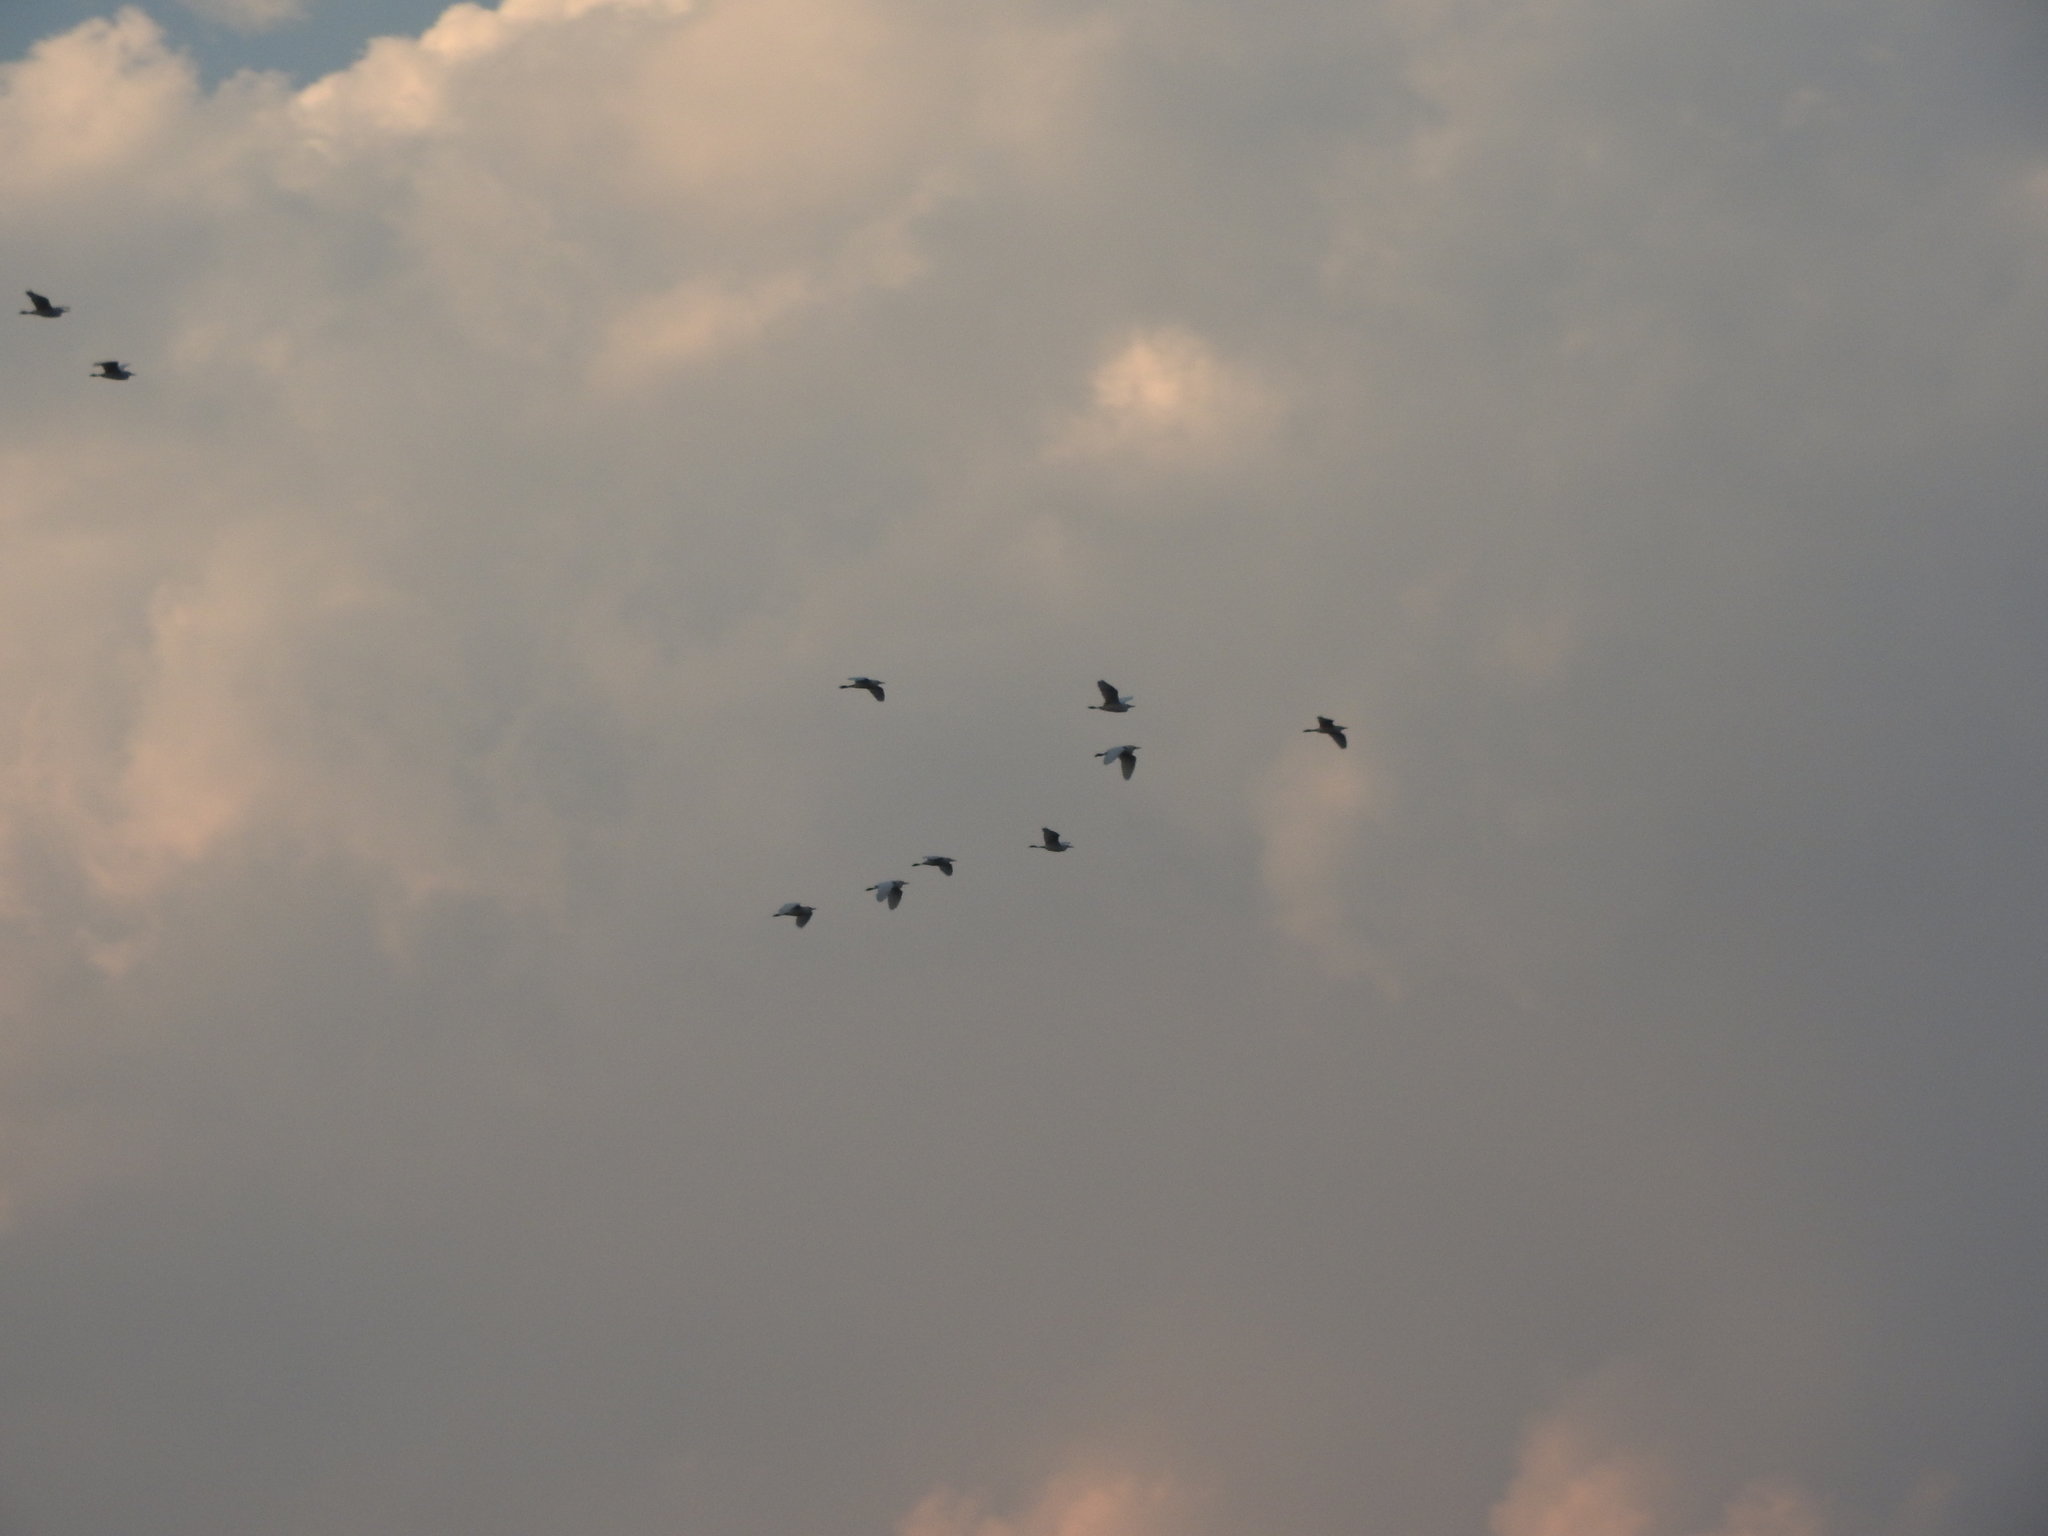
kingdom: Animalia
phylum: Chordata
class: Aves
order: Pelecaniformes
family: Ardeidae
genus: Bubulcus
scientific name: Bubulcus ibis
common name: Cattle egret
